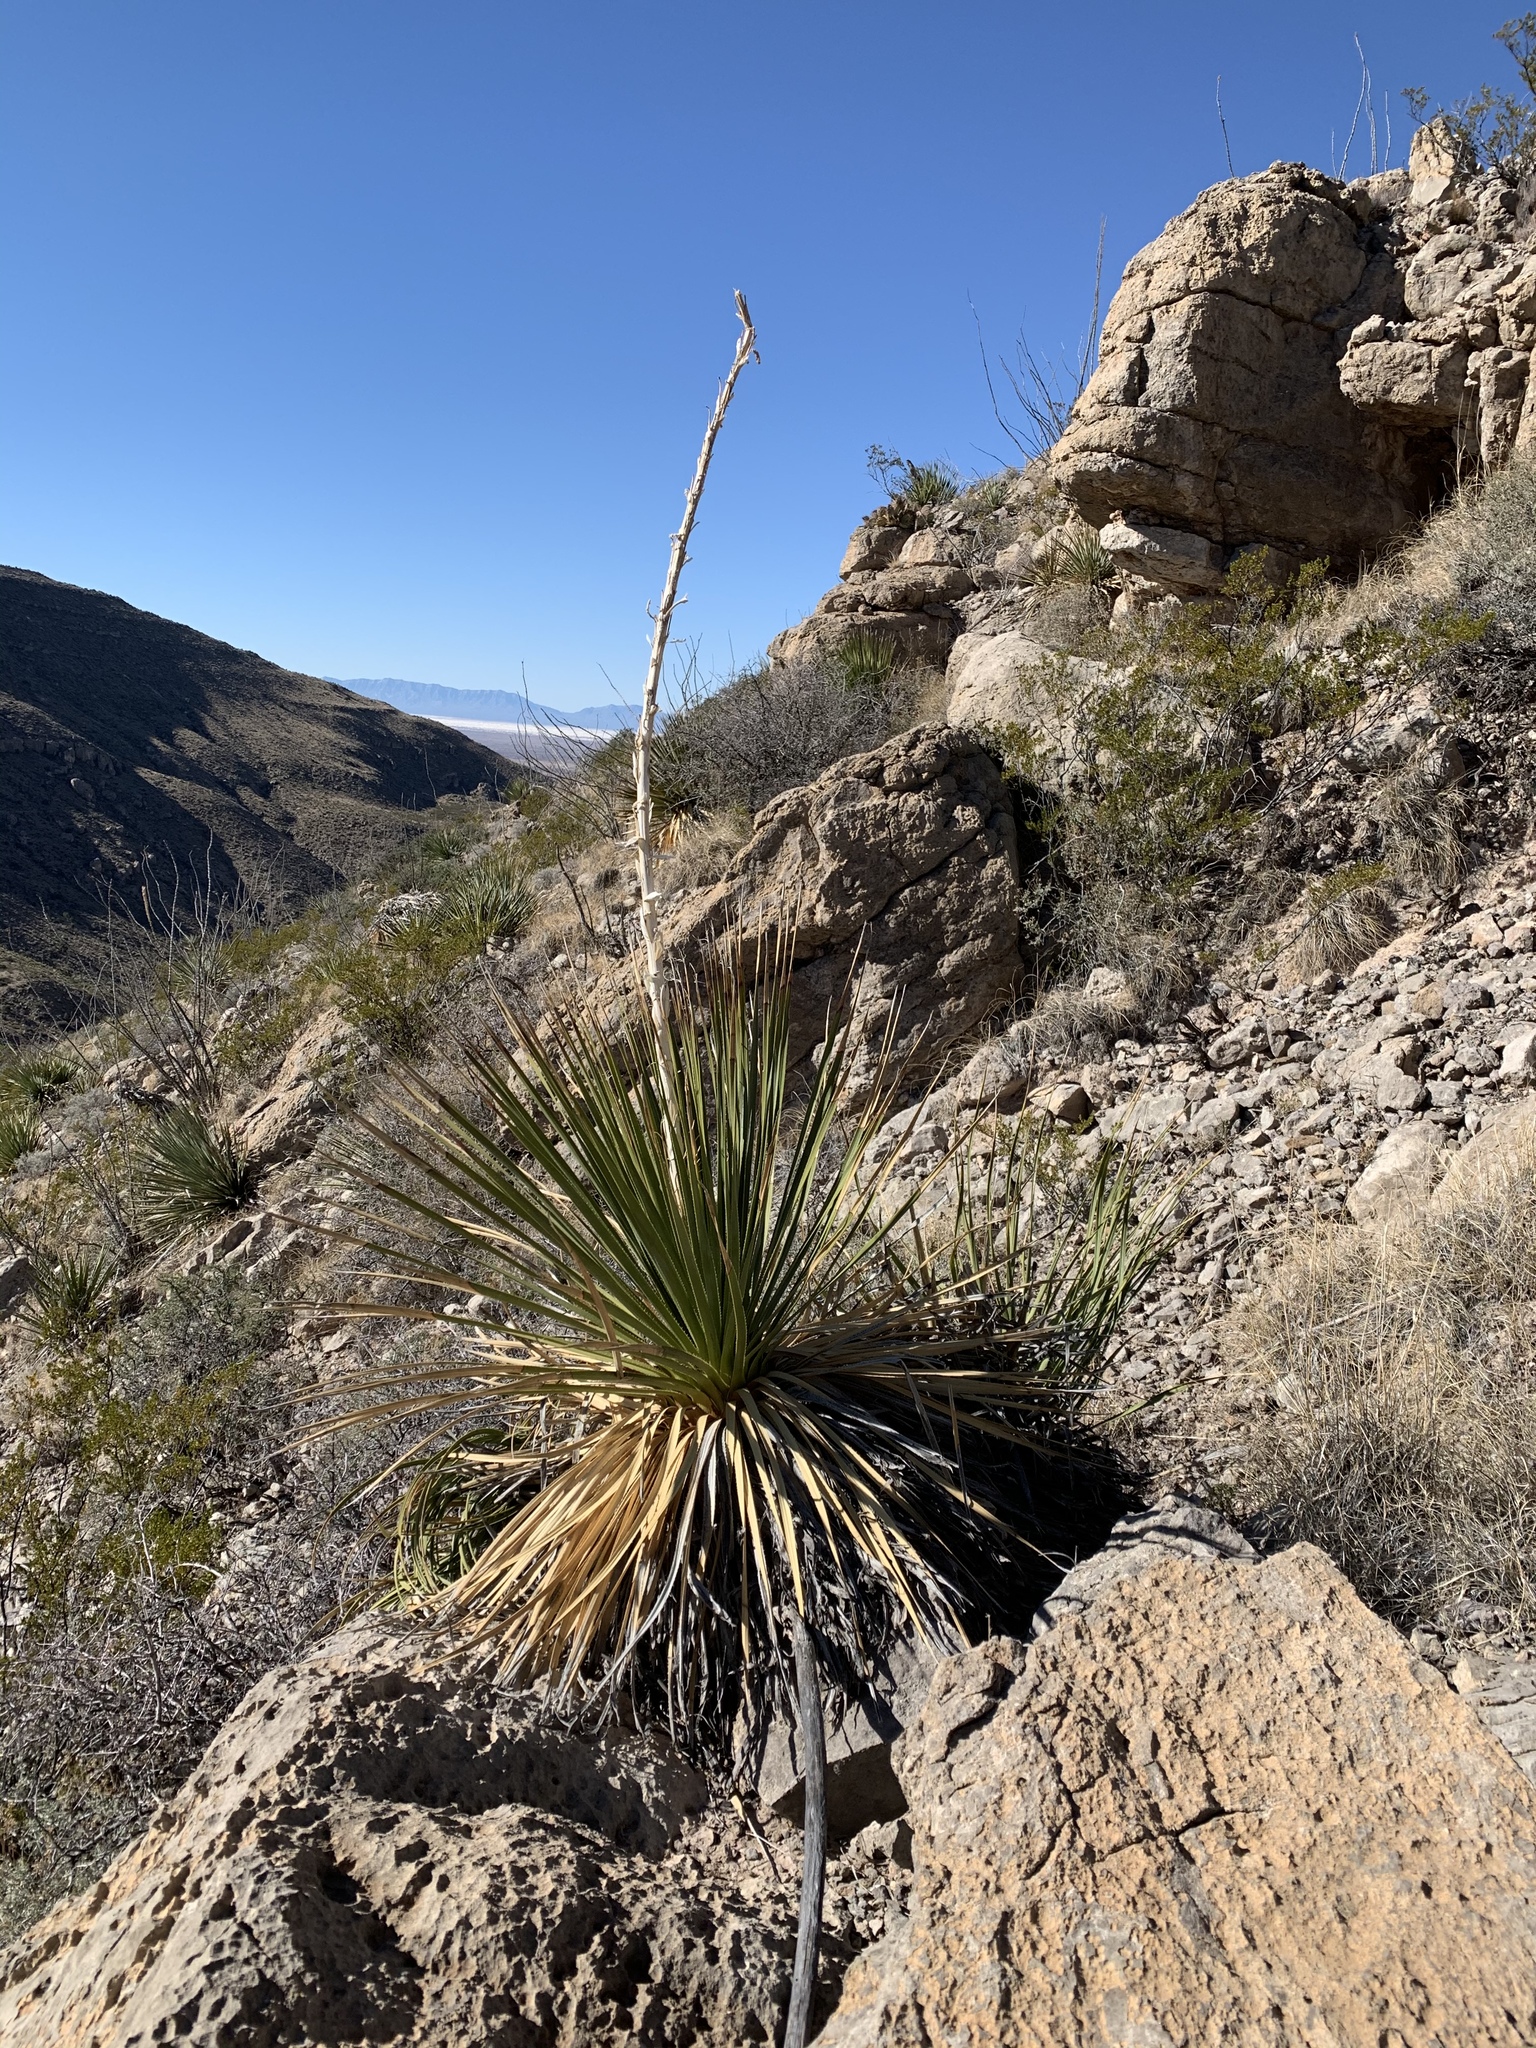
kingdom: Plantae
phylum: Tracheophyta
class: Liliopsida
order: Asparagales
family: Asparagaceae
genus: Dasylirion
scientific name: Dasylirion wheeleri
